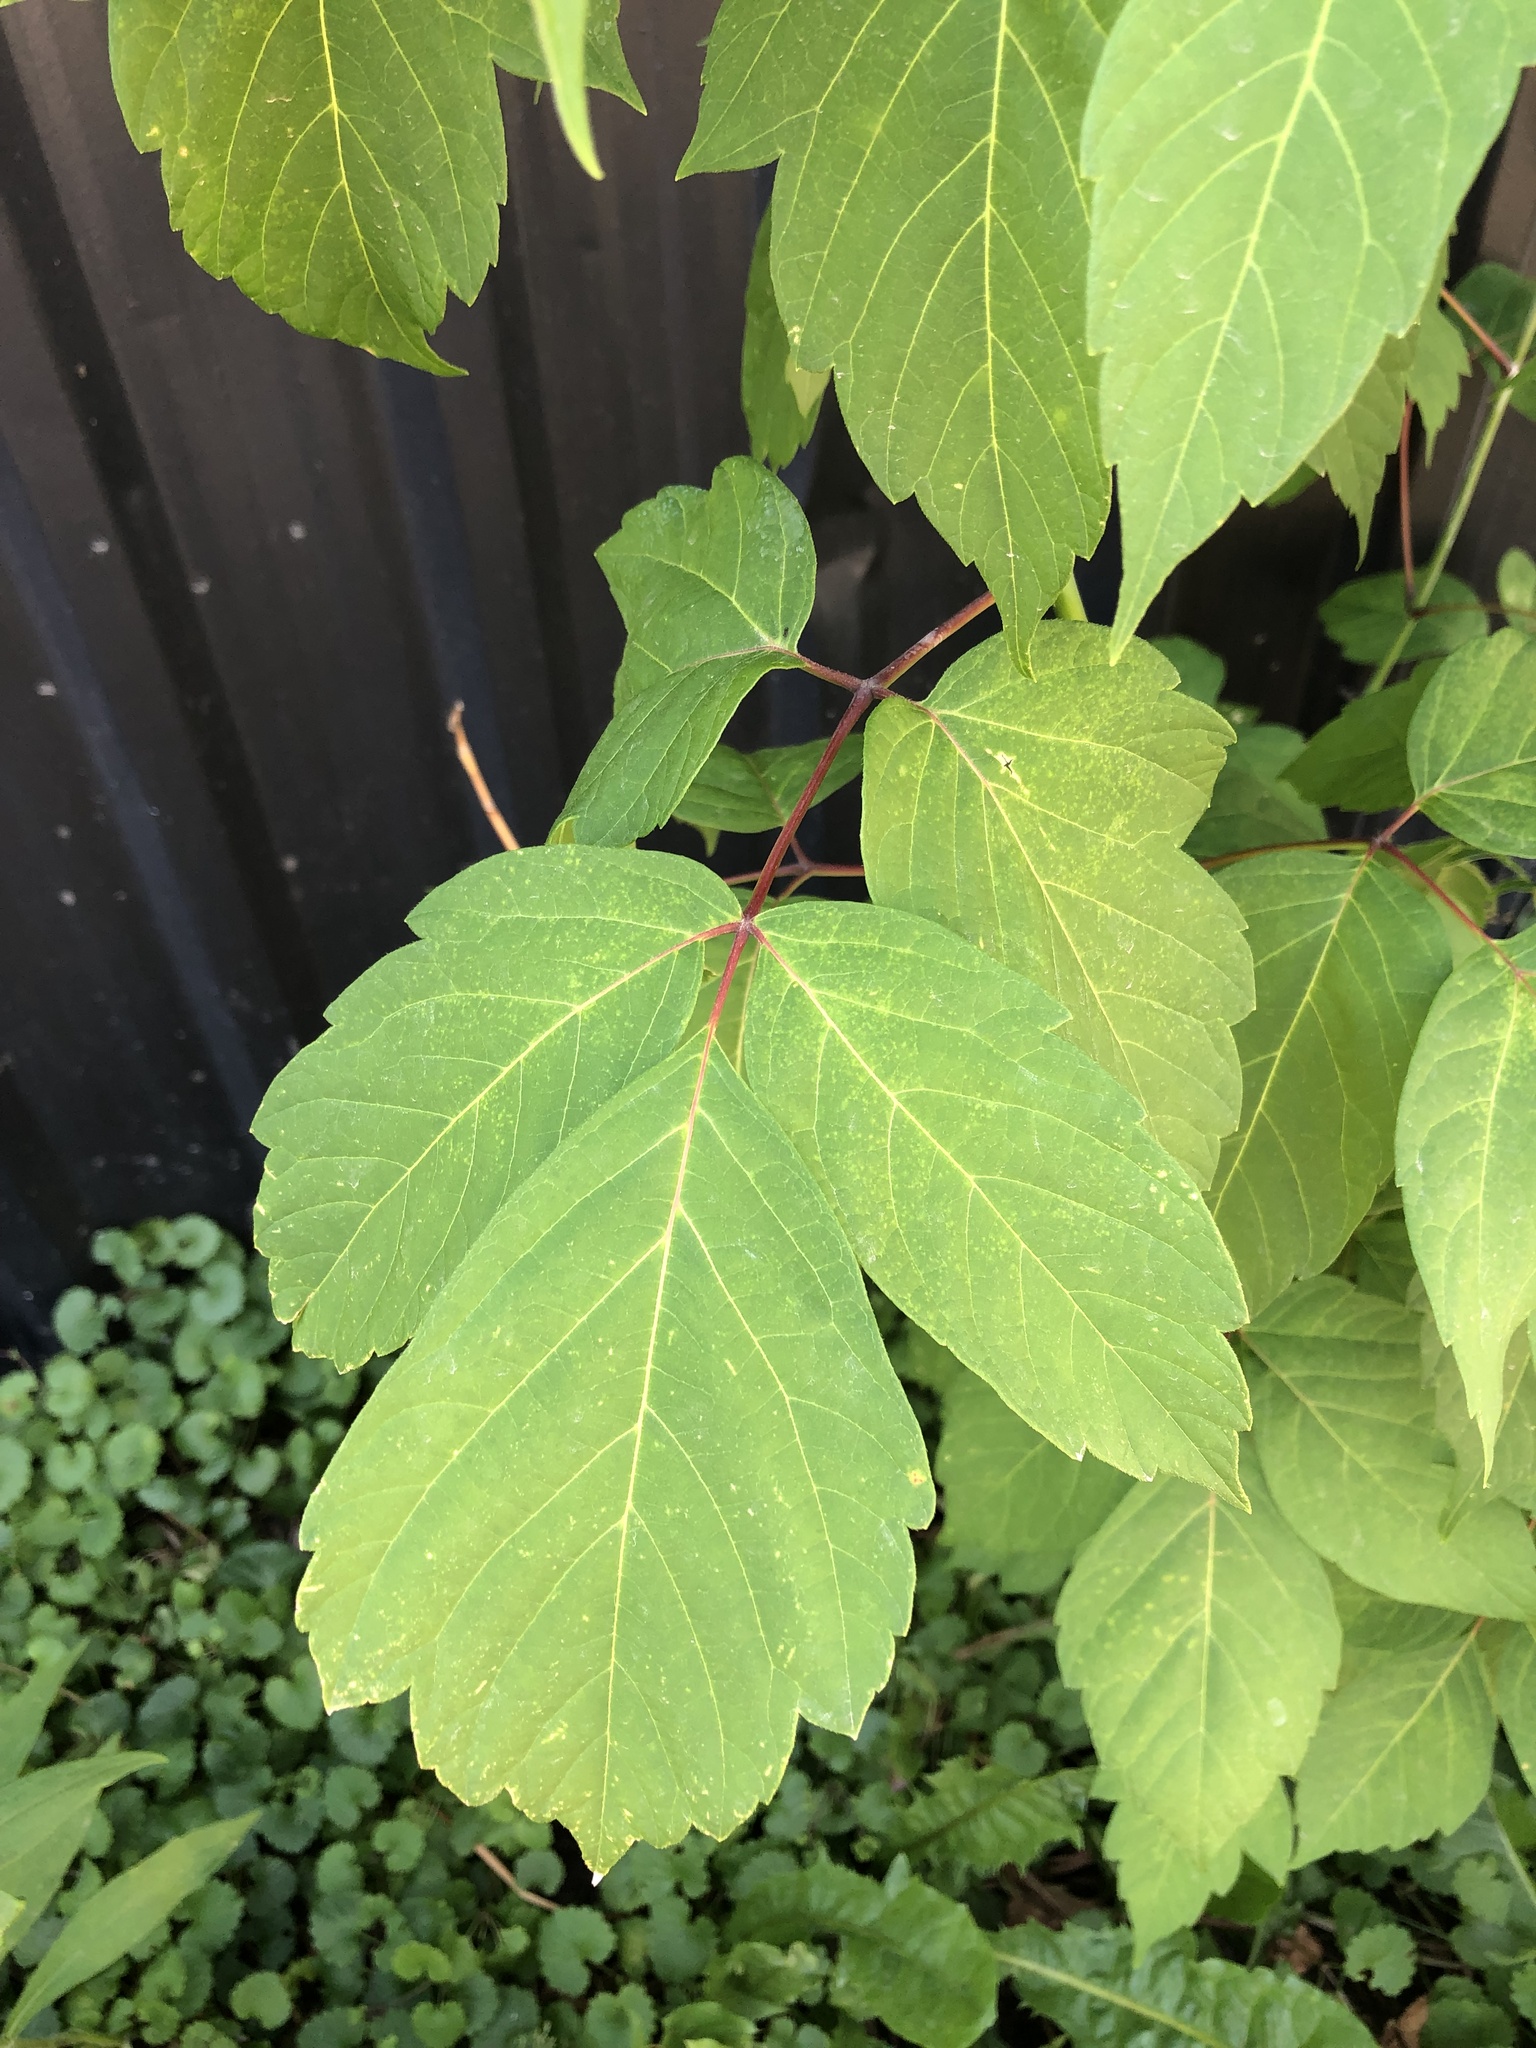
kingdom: Plantae
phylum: Tracheophyta
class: Magnoliopsida
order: Sapindales
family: Sapindaceae
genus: Acer
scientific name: Acer negundo
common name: Ashleaf maple
